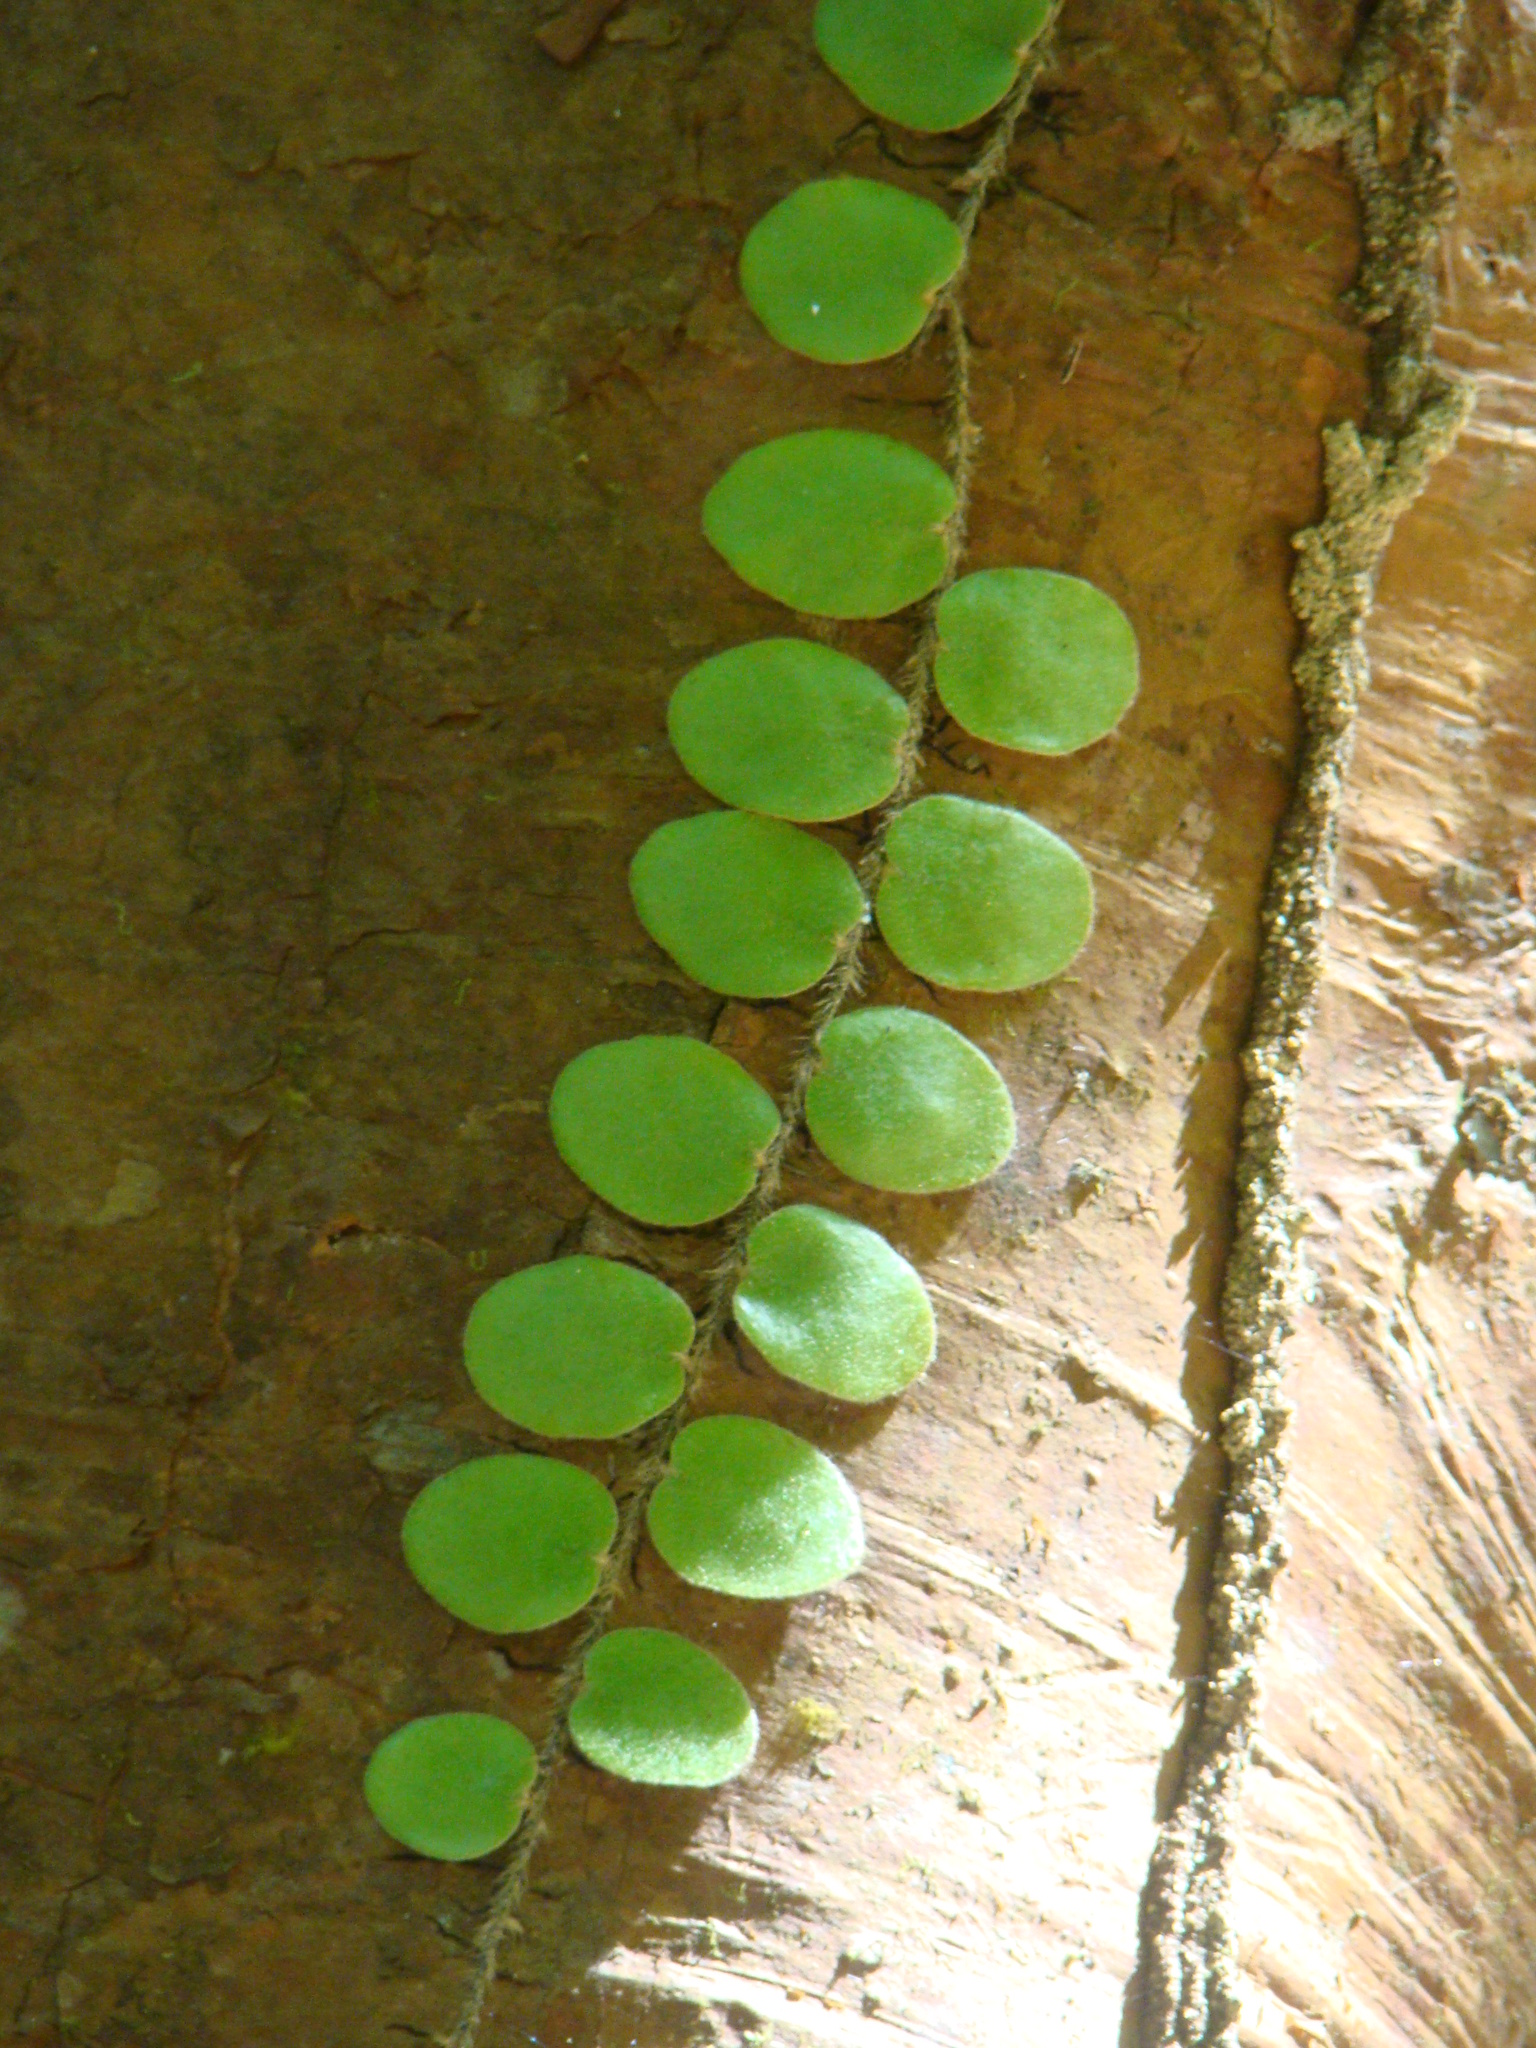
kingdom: Plantae
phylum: Tracheophyta
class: Polypodiopsida
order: Polypodiales
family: Polypodiaceae
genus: Pyrrosia
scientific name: Pyrrosia piloselloides
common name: Epiphytic creeping fern
